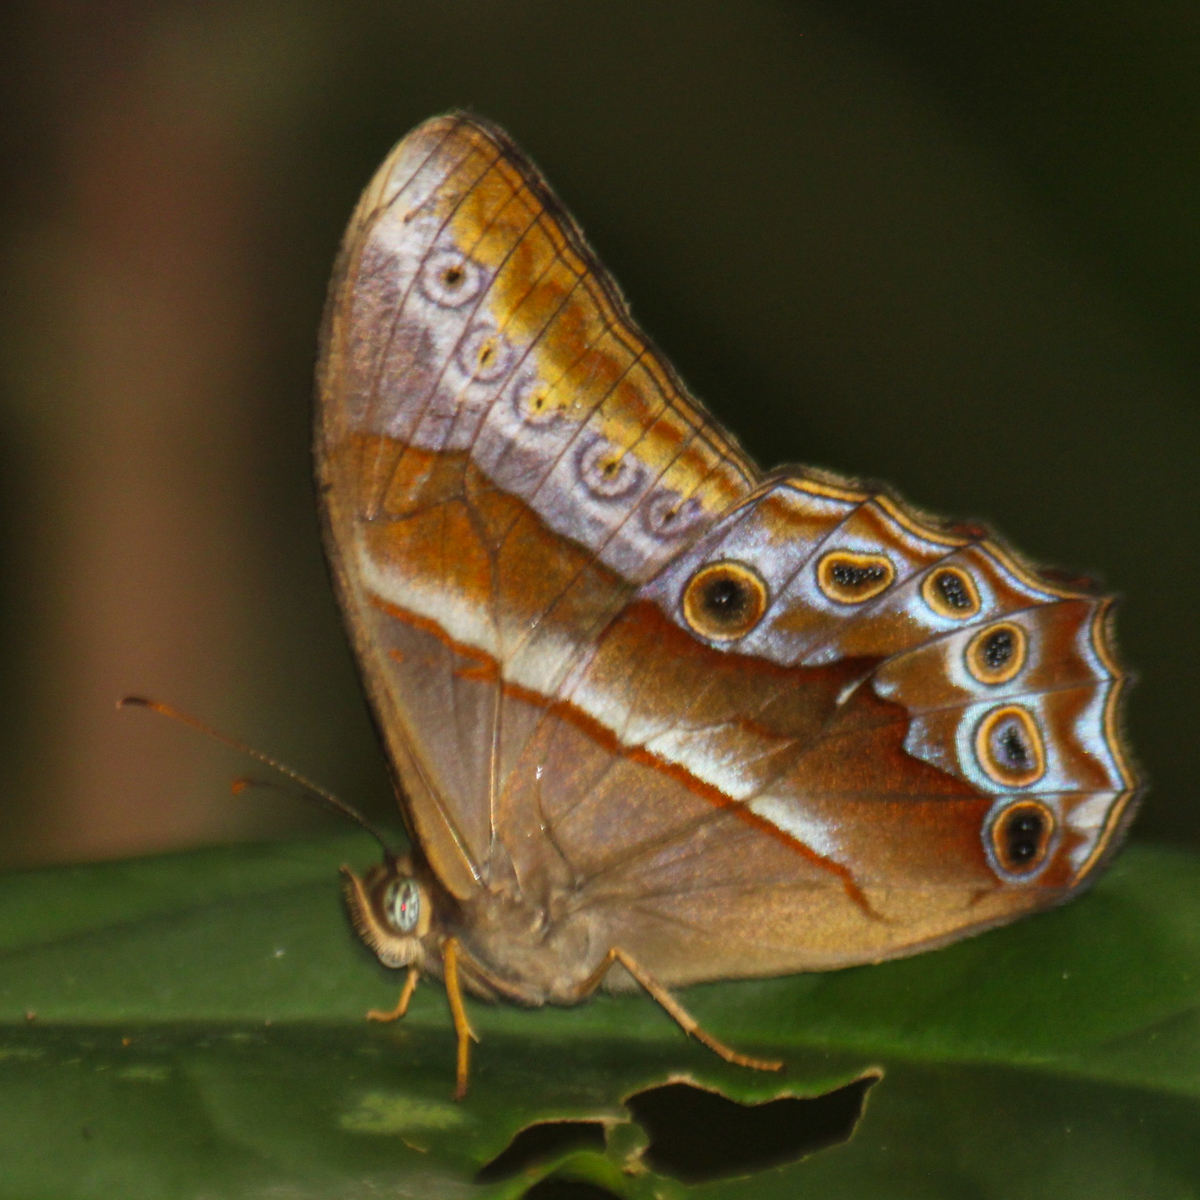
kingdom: Animalia
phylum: Arthropoda
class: Insecta
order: Lepidoptera
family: Nymphalidae
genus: Lethe
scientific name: Lethe mekara
